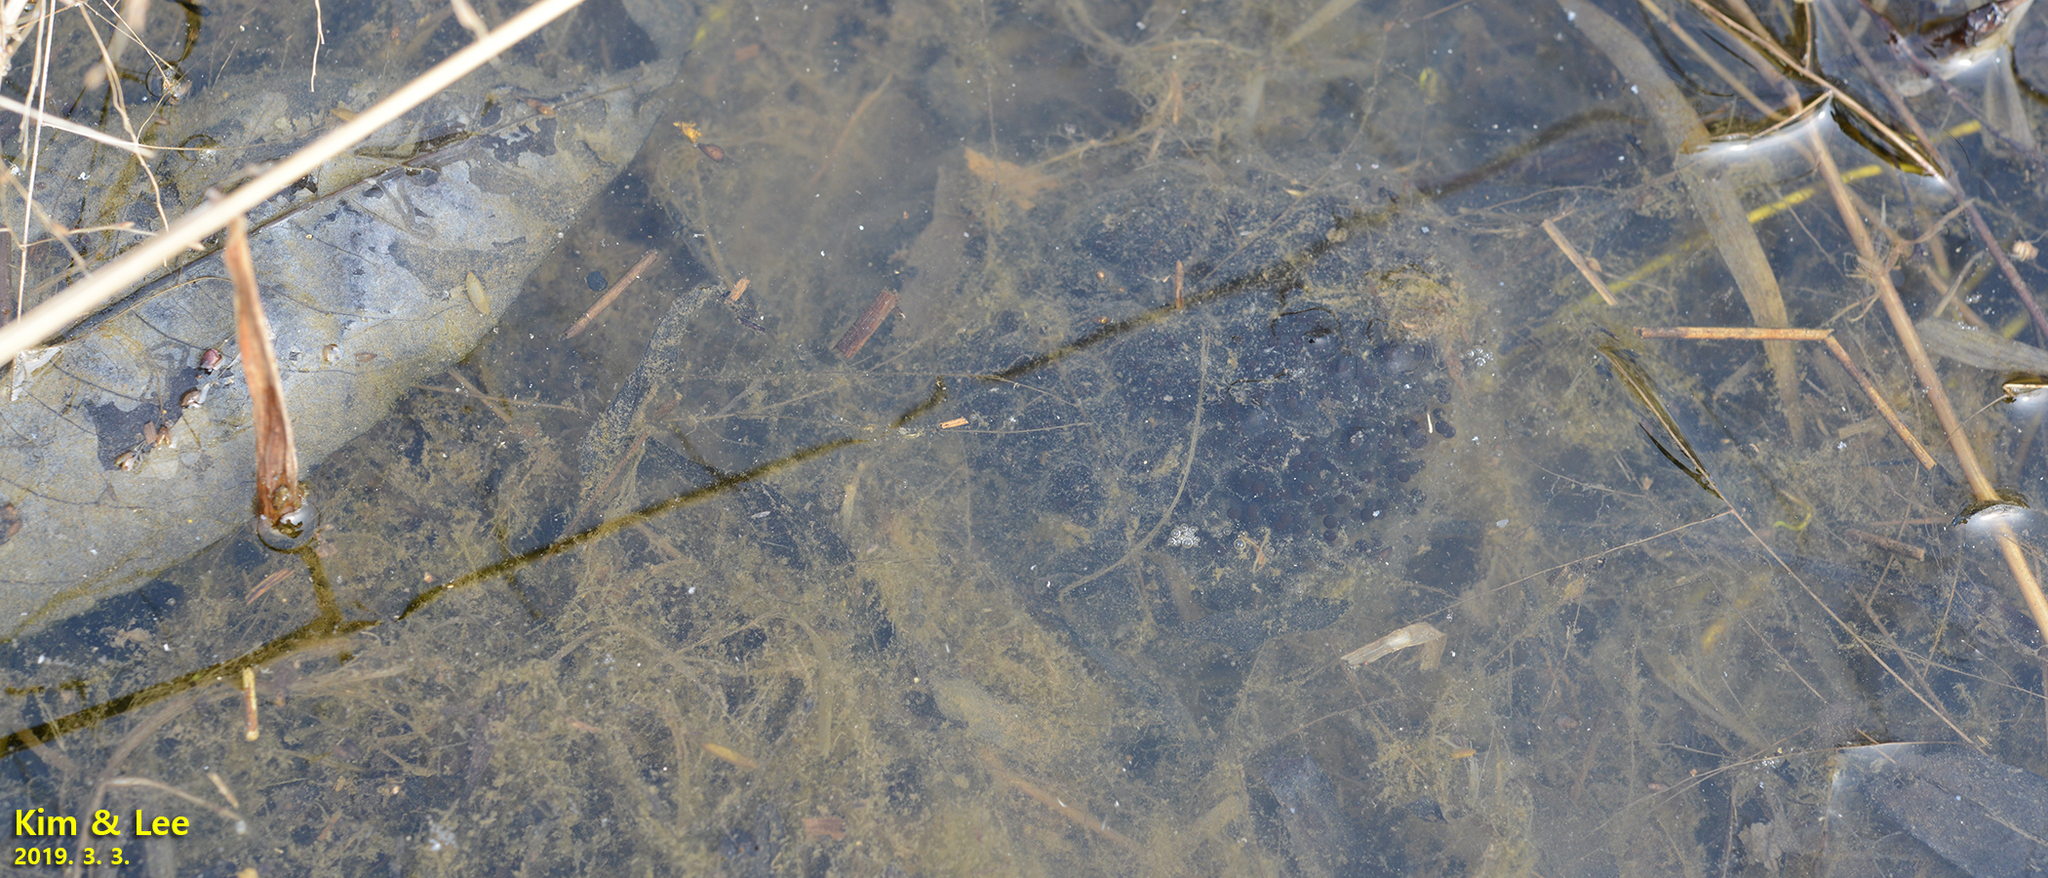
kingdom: Animalia
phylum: Chordata
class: Amphibia
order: Anura
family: Ranidae
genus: Rana
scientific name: Rana coreana
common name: Korean brown frog
